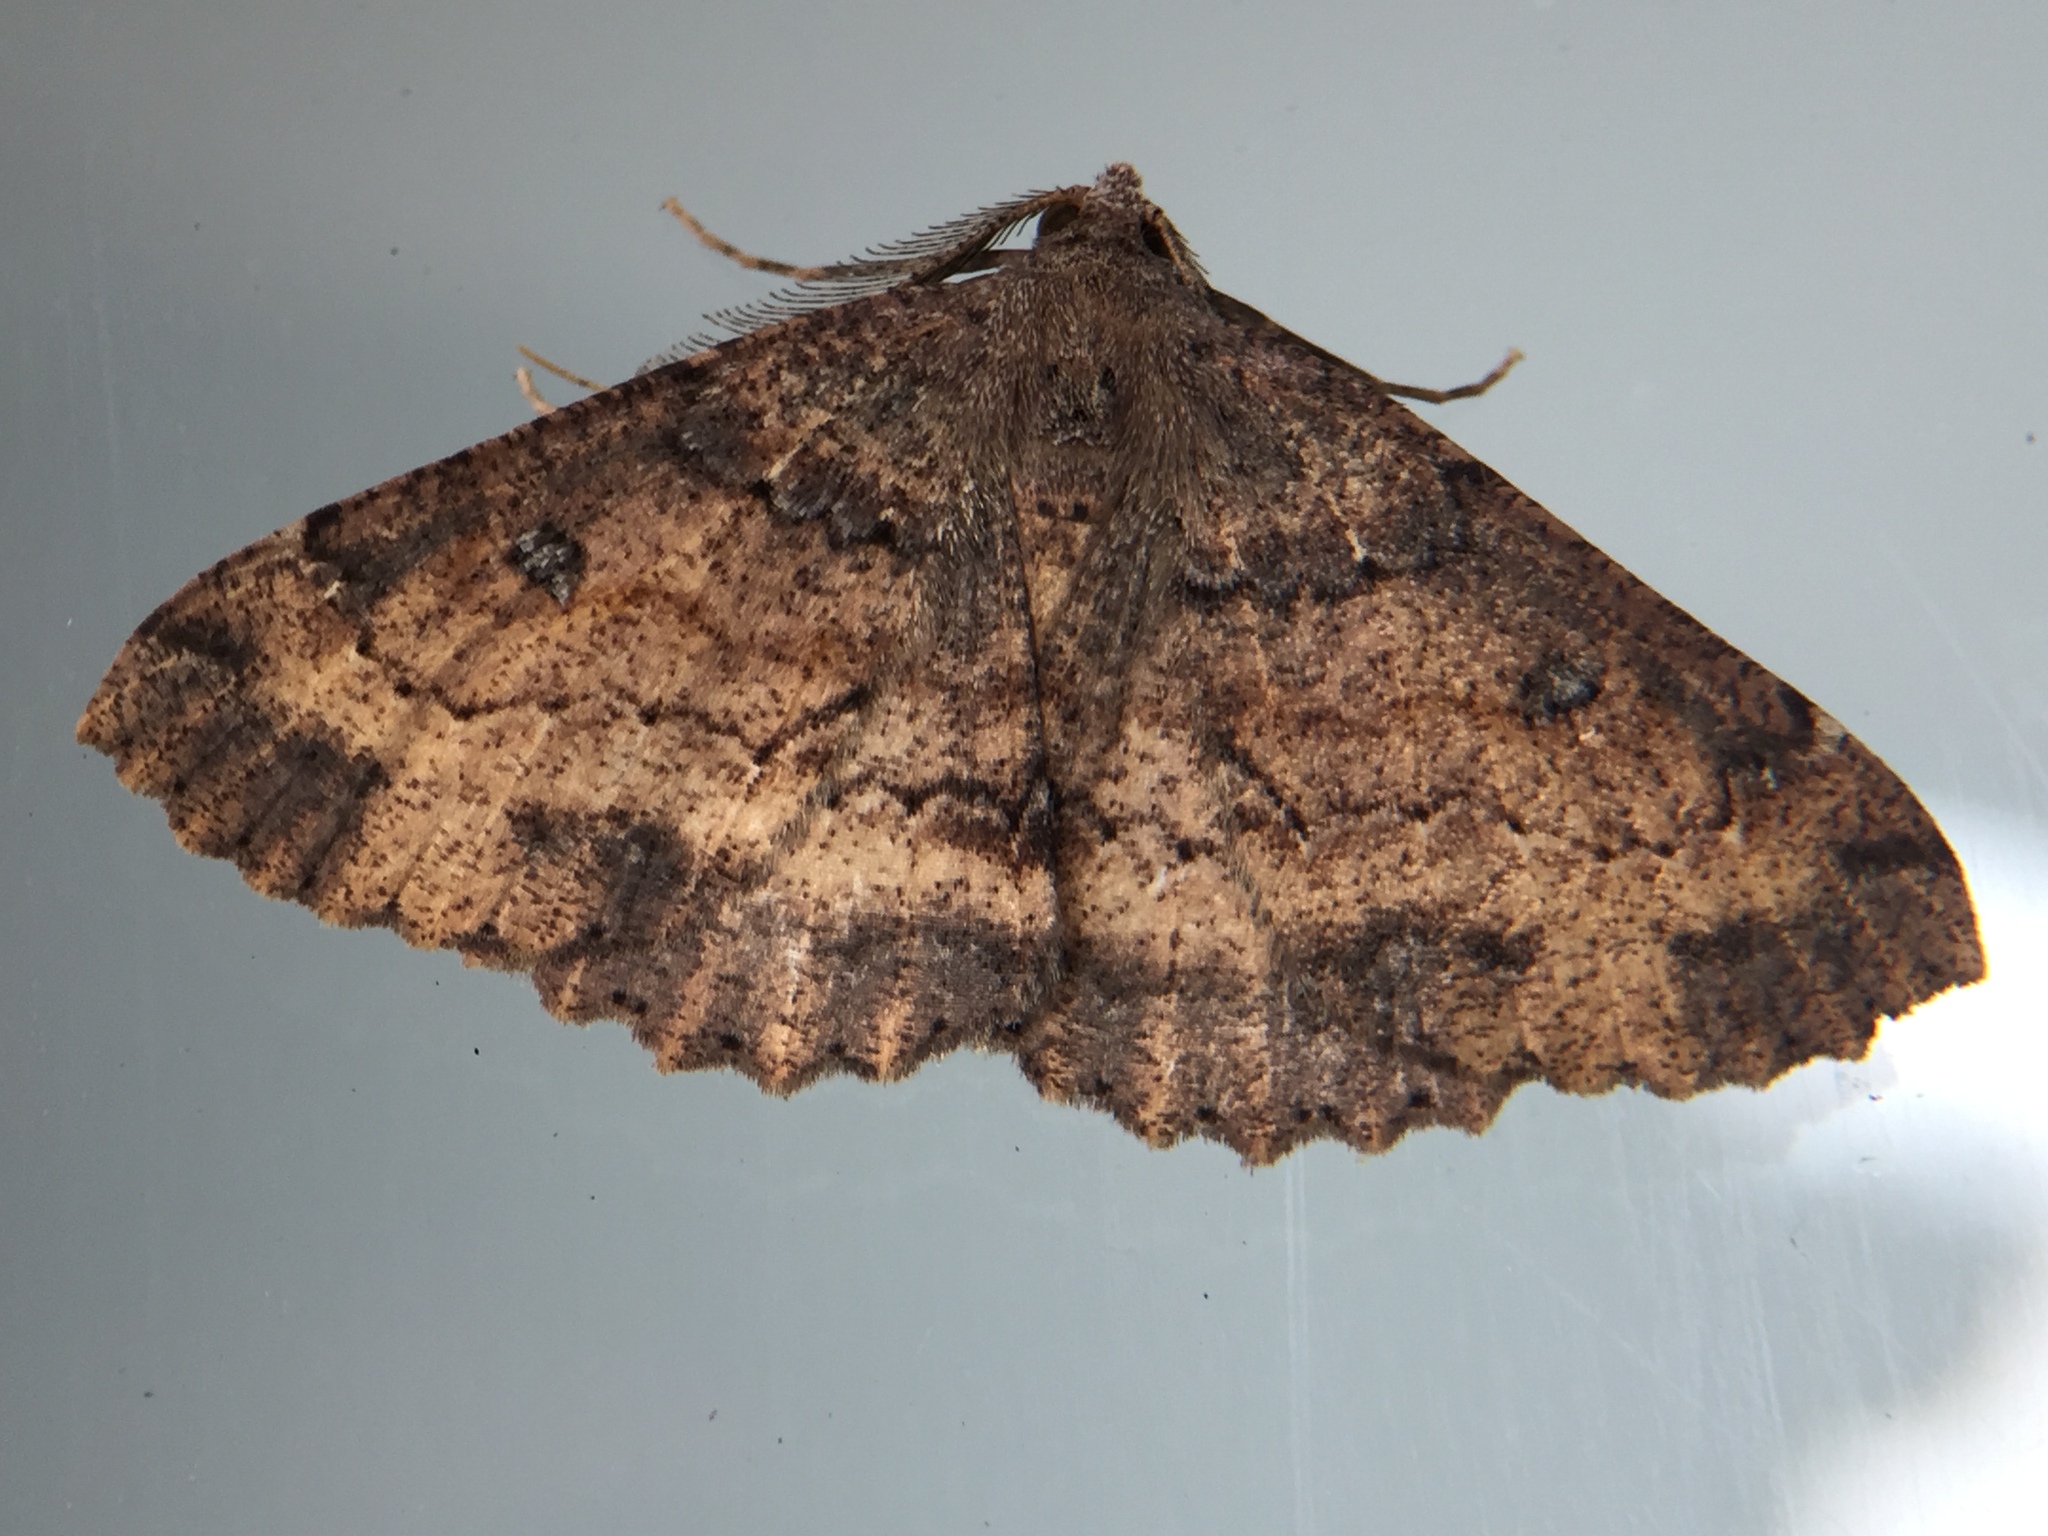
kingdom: Animalia
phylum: Arthropoda
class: Insecta
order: Lepidoptera
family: Geometridae
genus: Cleora
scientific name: Cleora scriptaria
